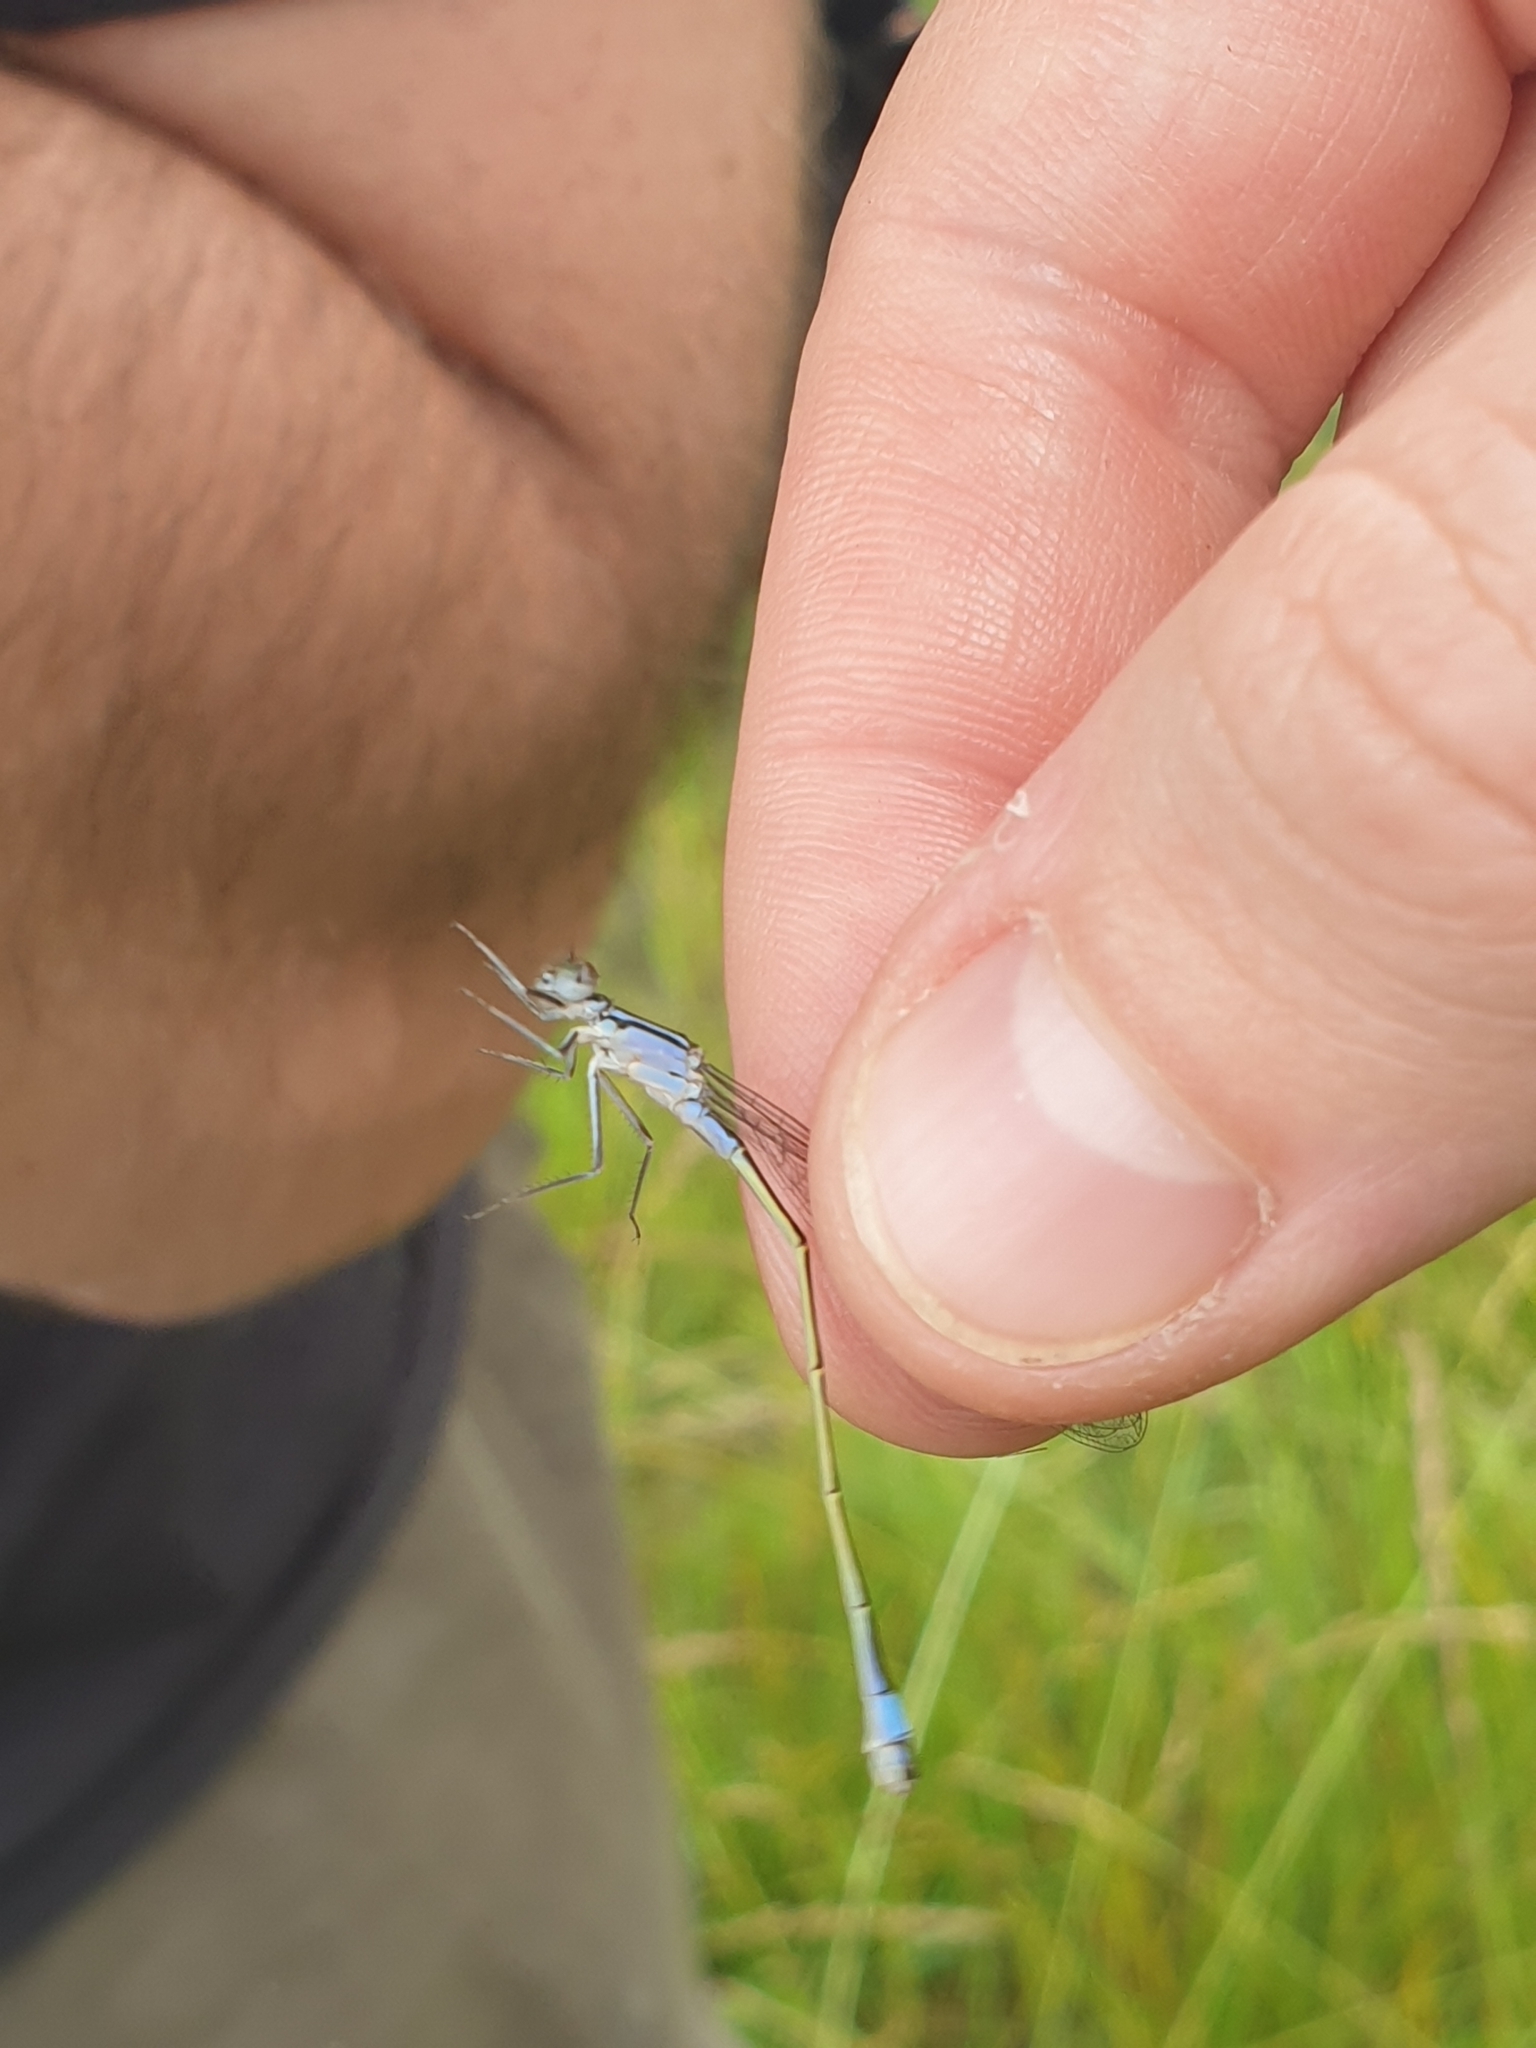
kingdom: Animalia
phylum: Arthropoda
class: Insecta
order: Odonata
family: Coenagrionidae
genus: Ischnura
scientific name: Ischnura elegans
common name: Blue-tailed damselfly
